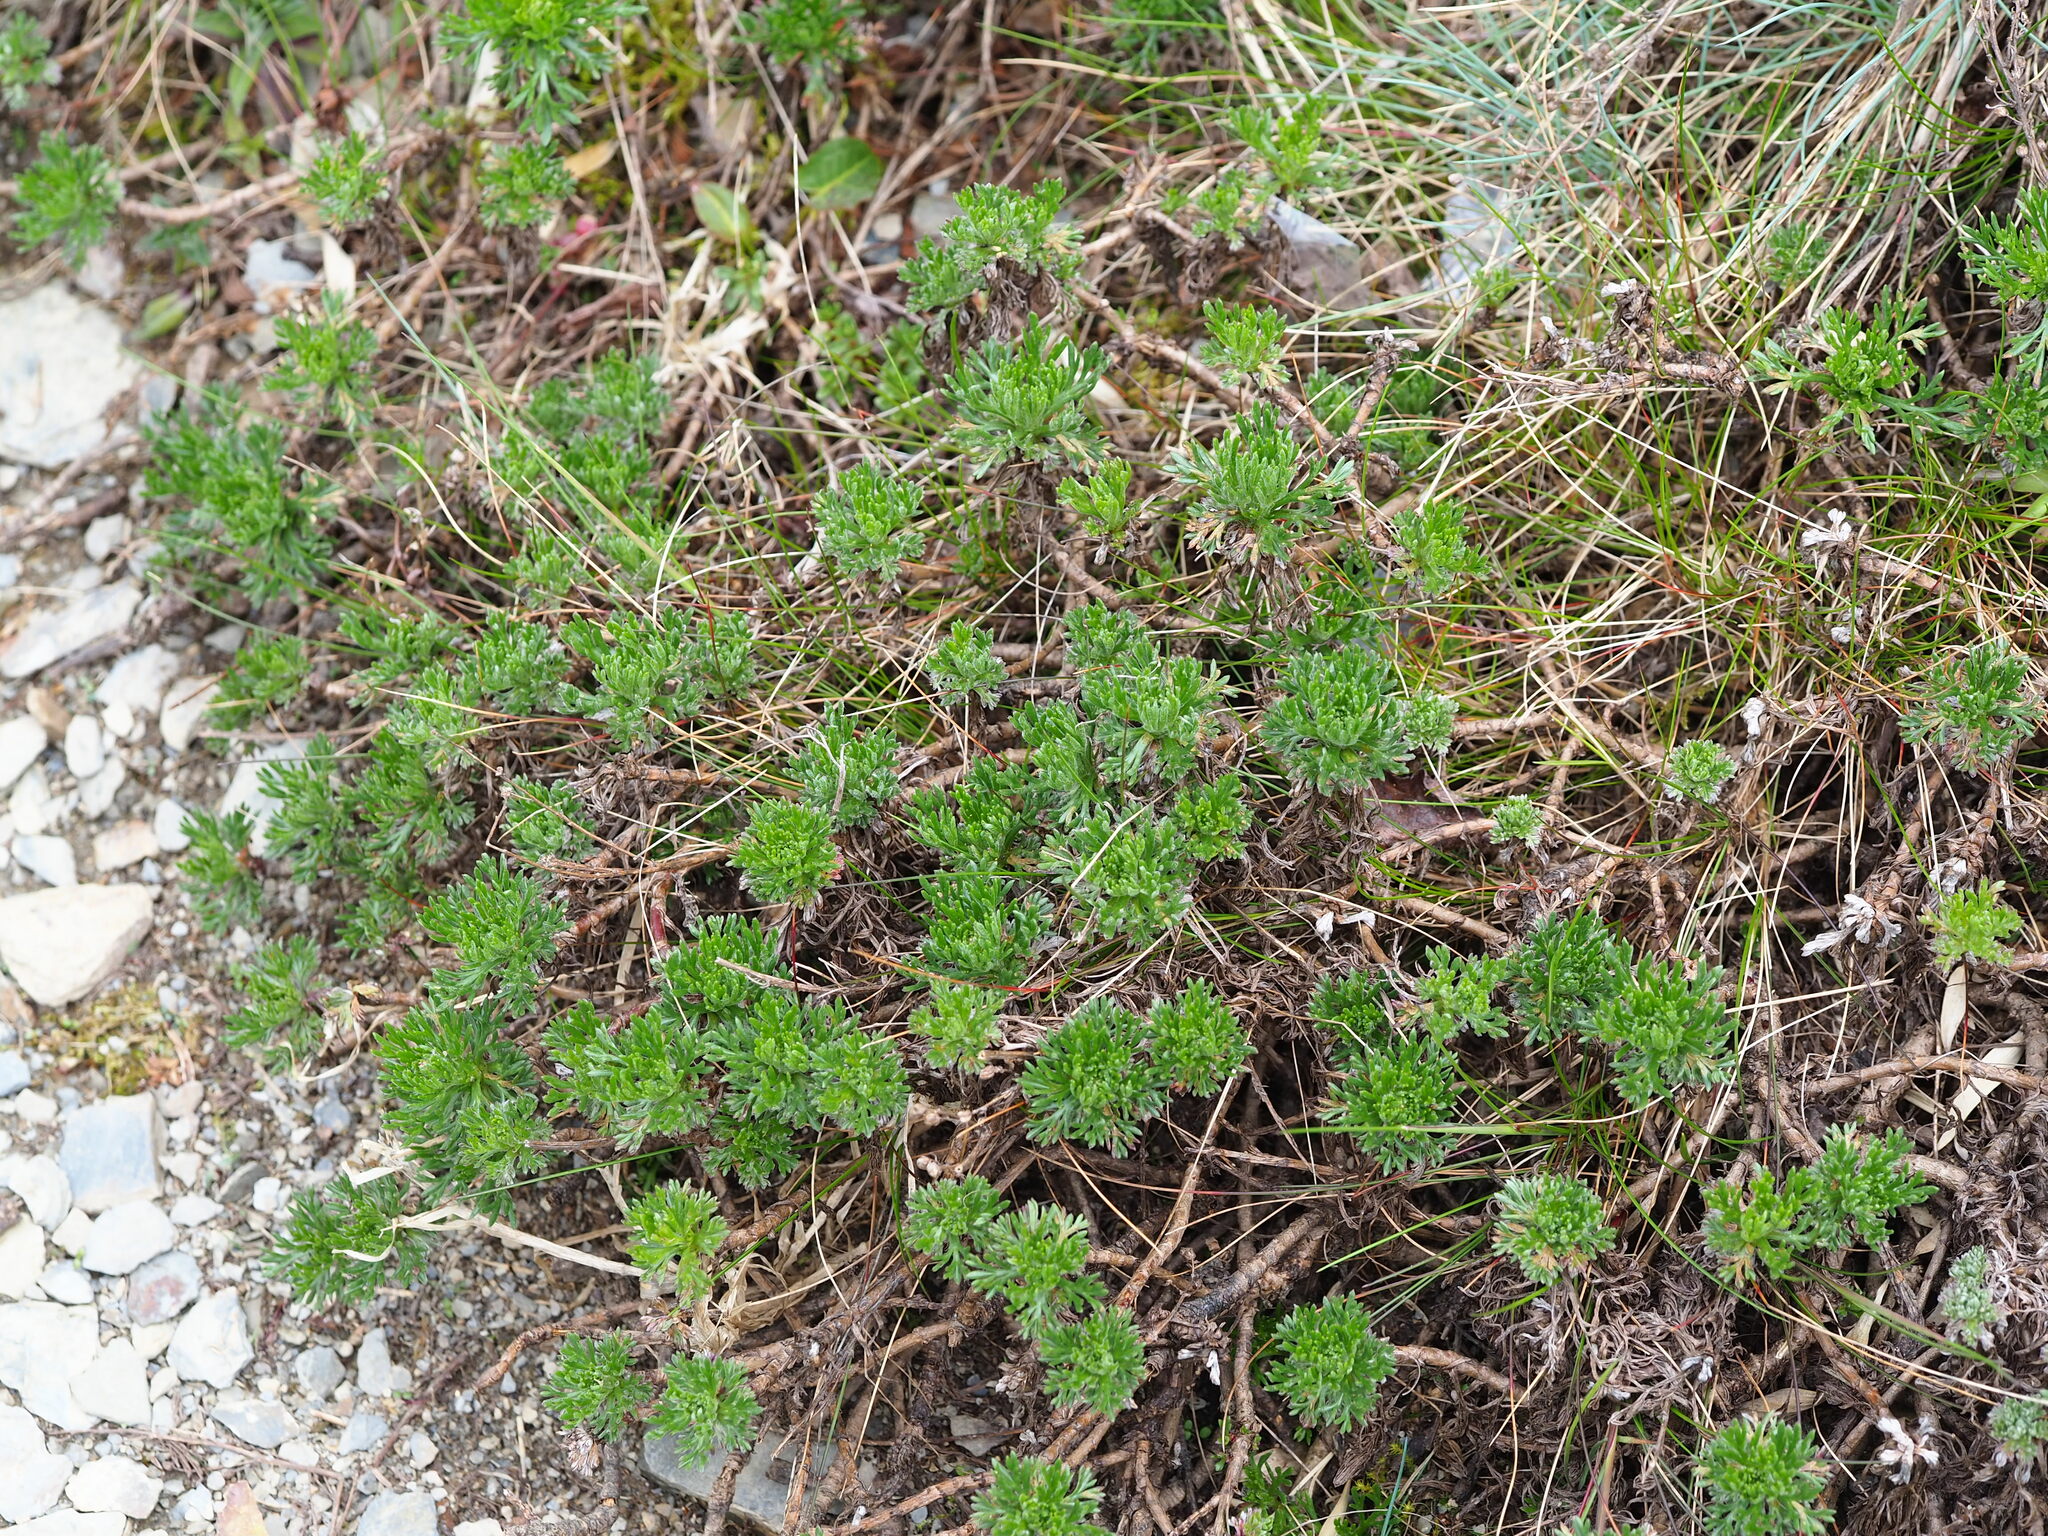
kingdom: Plantae
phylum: Tracheophyta
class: Magnoliopsida
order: Asterales
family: Asteraceae
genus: Artemisia
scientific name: Artemisia morrisonensis
